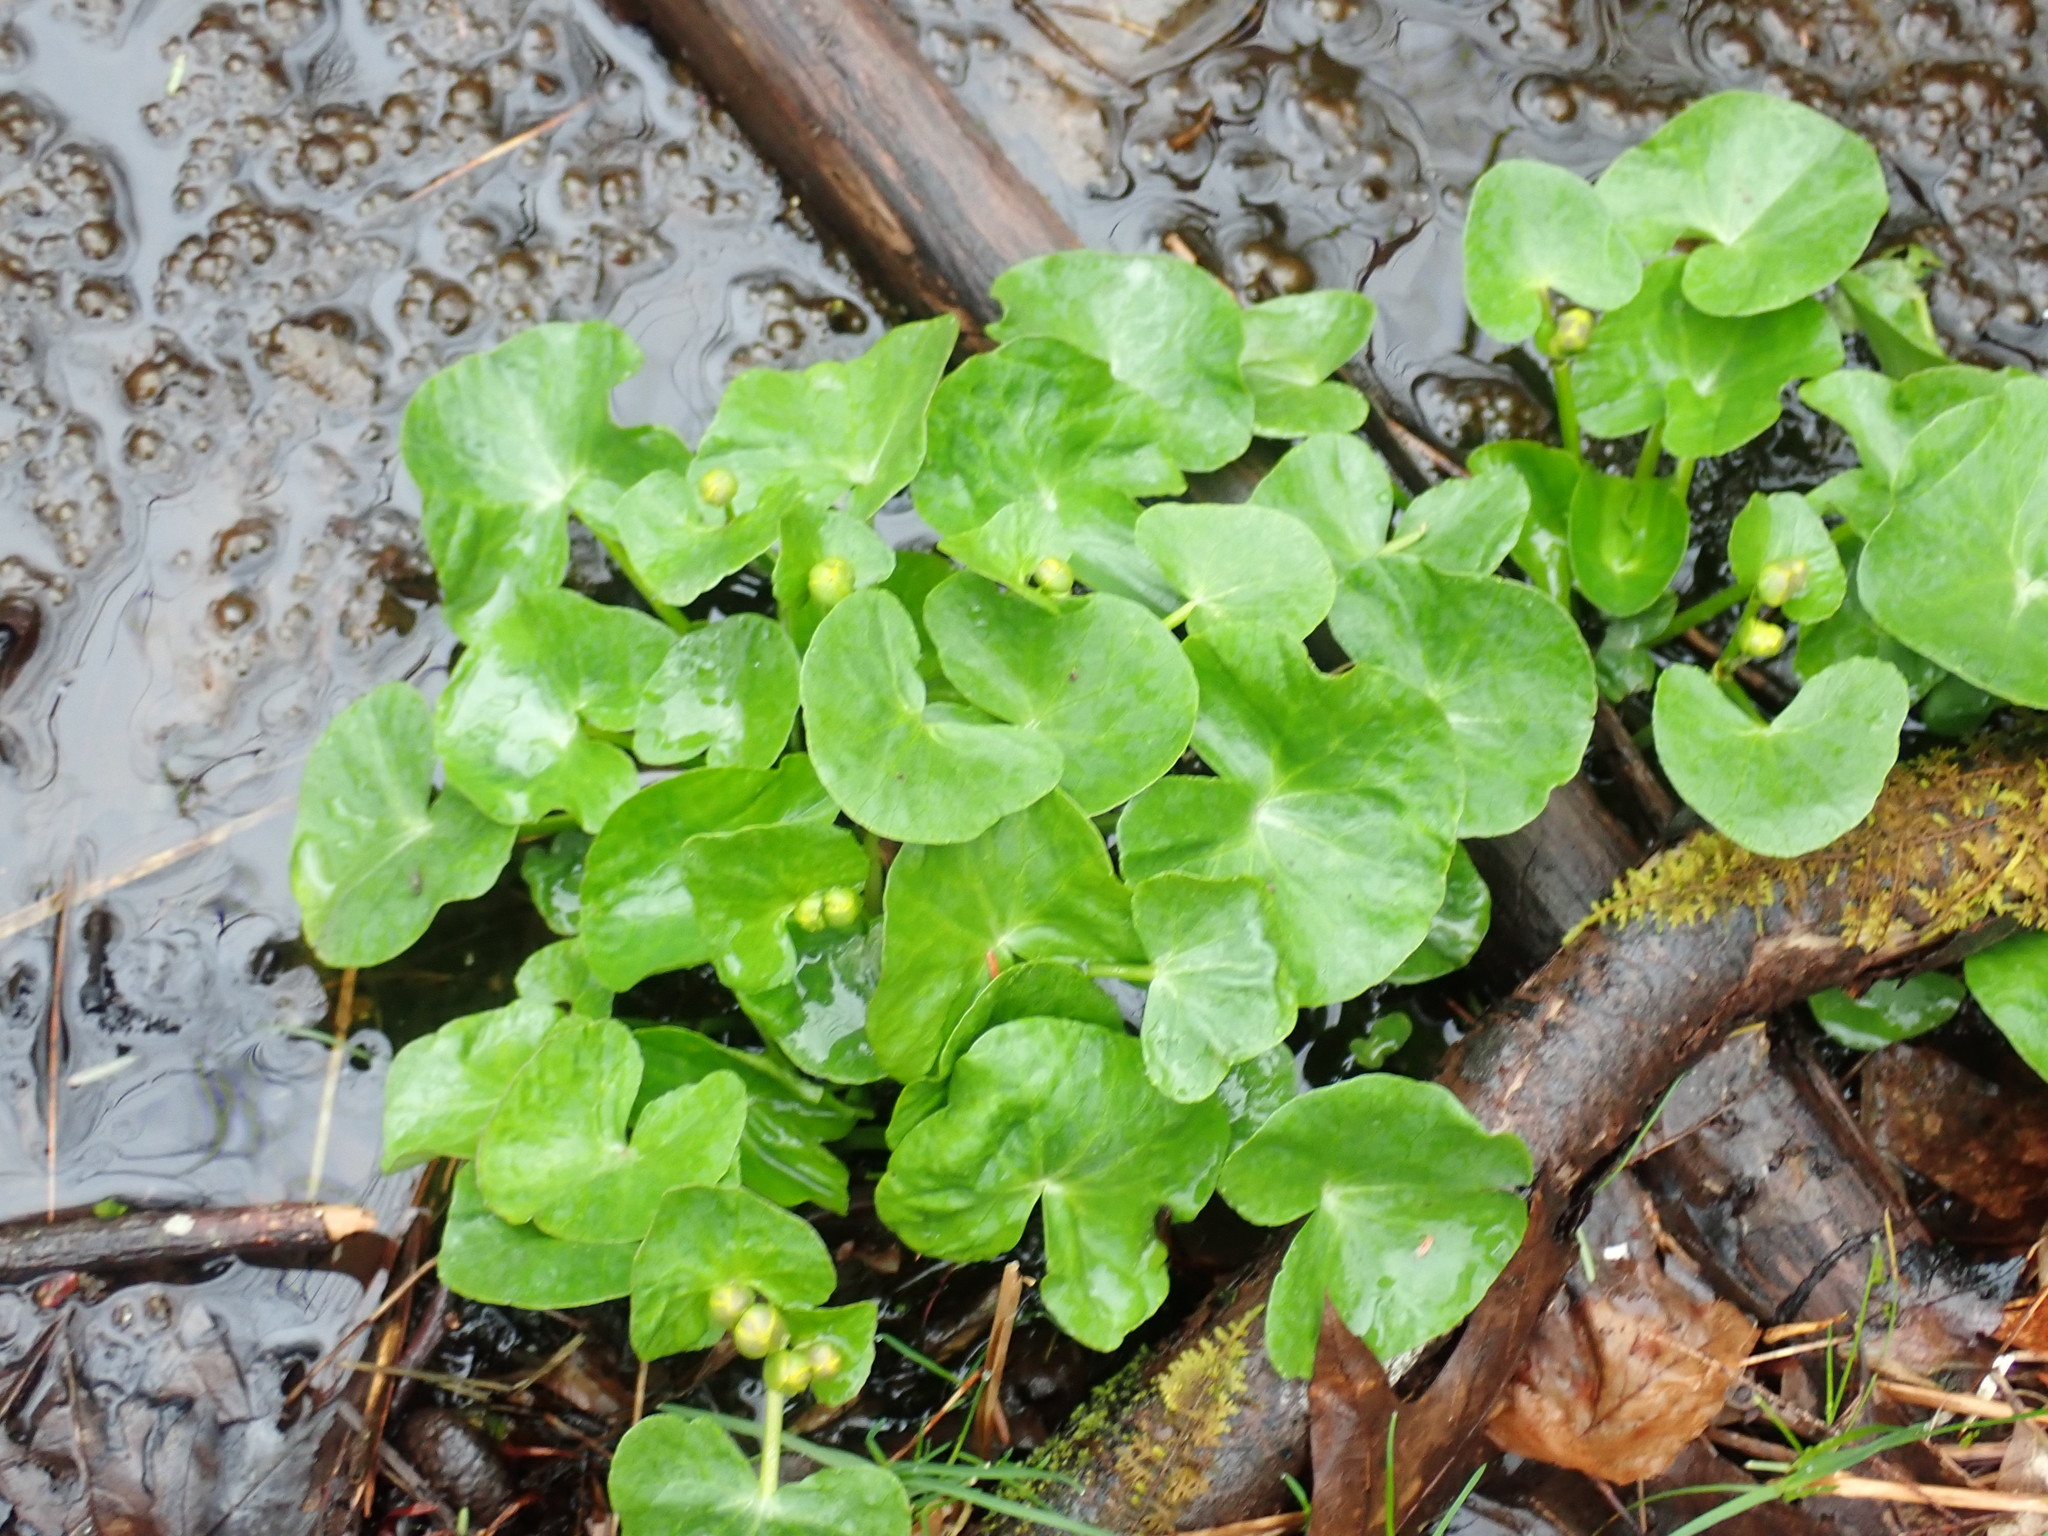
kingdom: Plantae
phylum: Tracheophyta
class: Magnoliopsida
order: Ranunculales
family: Ranunculaceae
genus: Caltha
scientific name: Caltha palustris
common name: Marsh marigold
